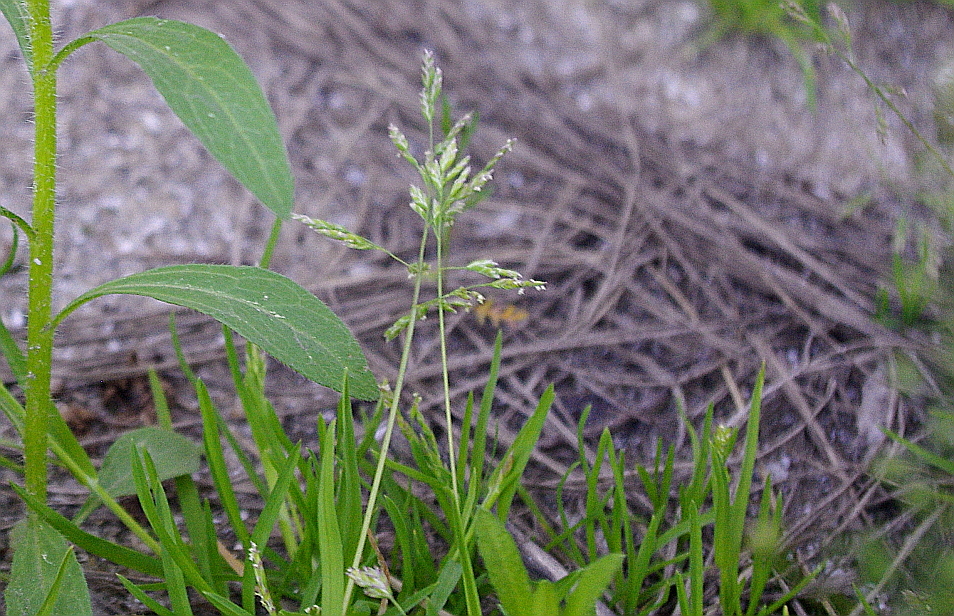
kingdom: Plantae
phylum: Tracheophyta
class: Liliopsida
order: Poales
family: Poaceae
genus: Poa
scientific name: Poa annua
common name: Annual bluegrass
